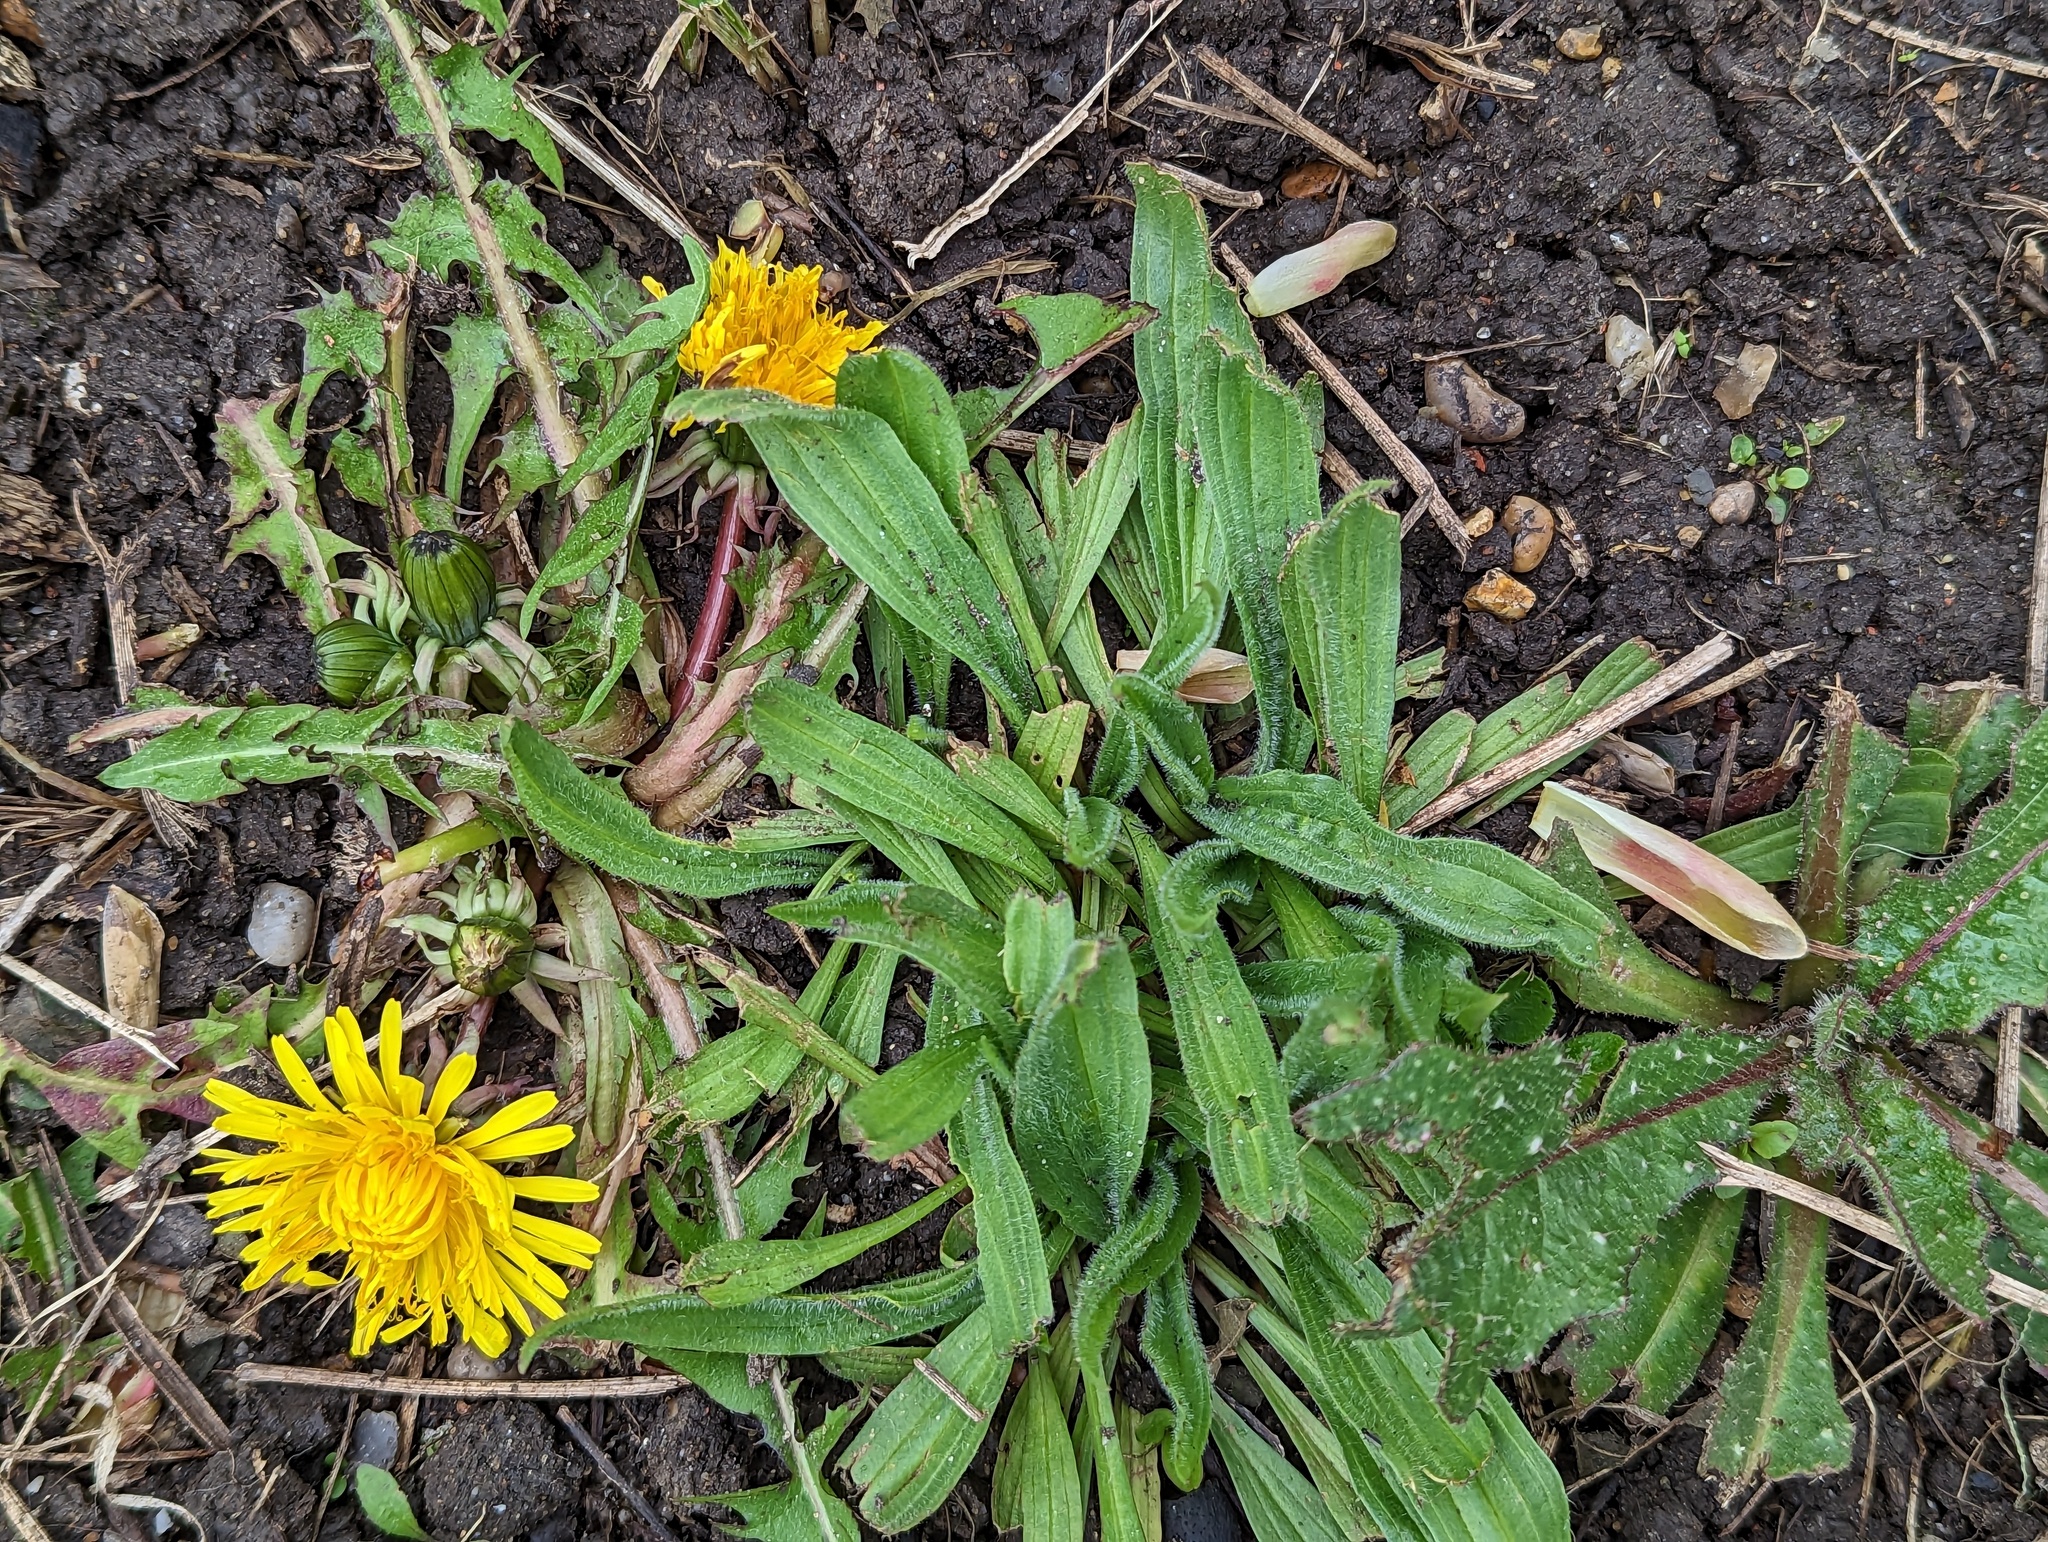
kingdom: Plantae
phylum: Tracheophyta
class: Magnoliopsida
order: Lamiales
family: Plantaginaceae
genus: Plantago
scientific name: Plantago lanceolata
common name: Ribwort plantain
